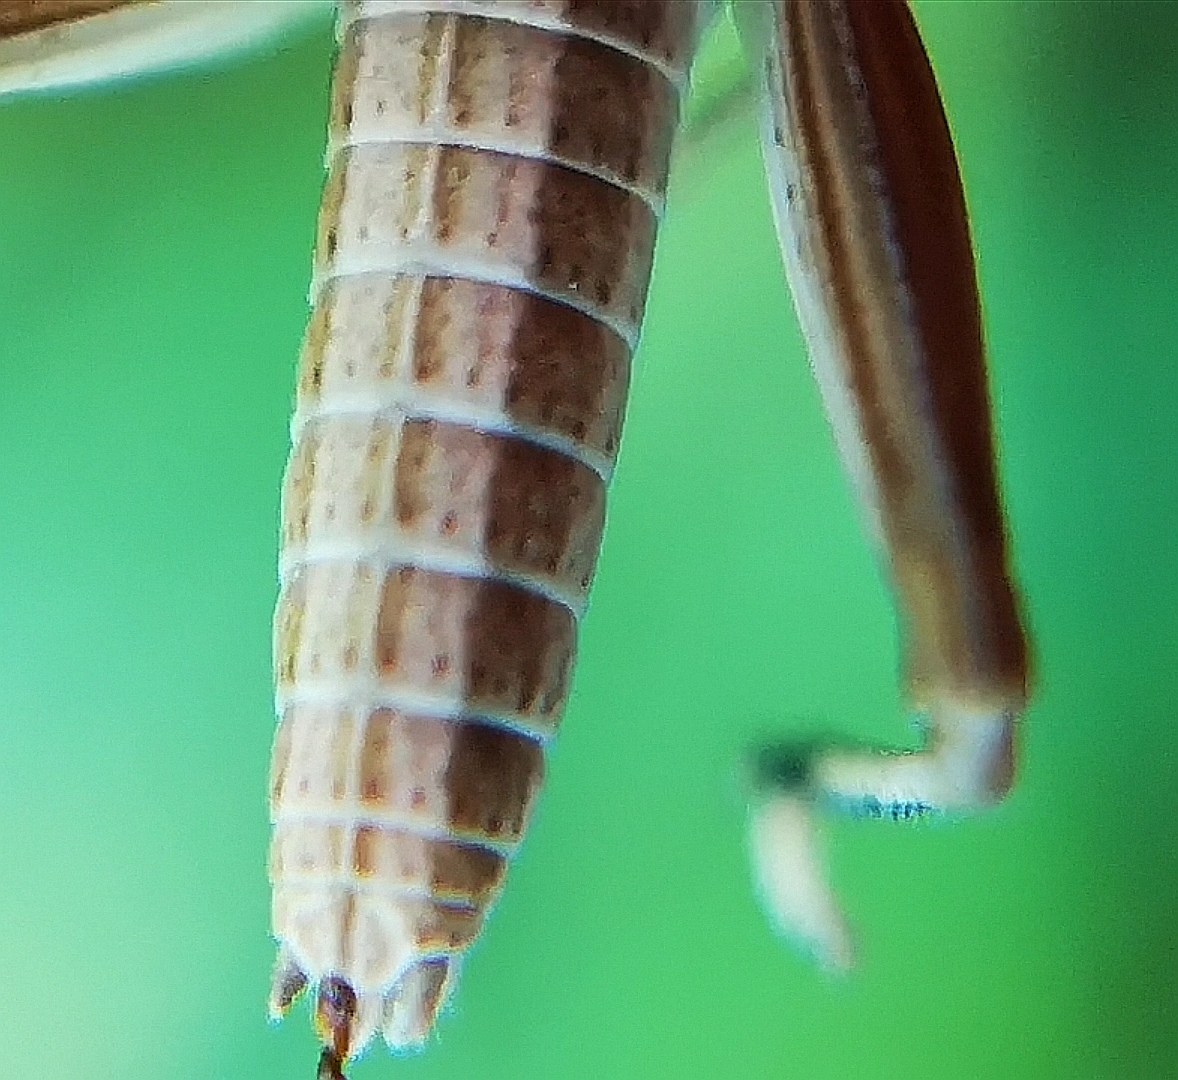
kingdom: Animalia
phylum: Arthropoda
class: Insecta
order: Orthoptera
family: Acrididae
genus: Euthystira
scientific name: Euthystira brachyptera
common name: Small gold grasshopper
